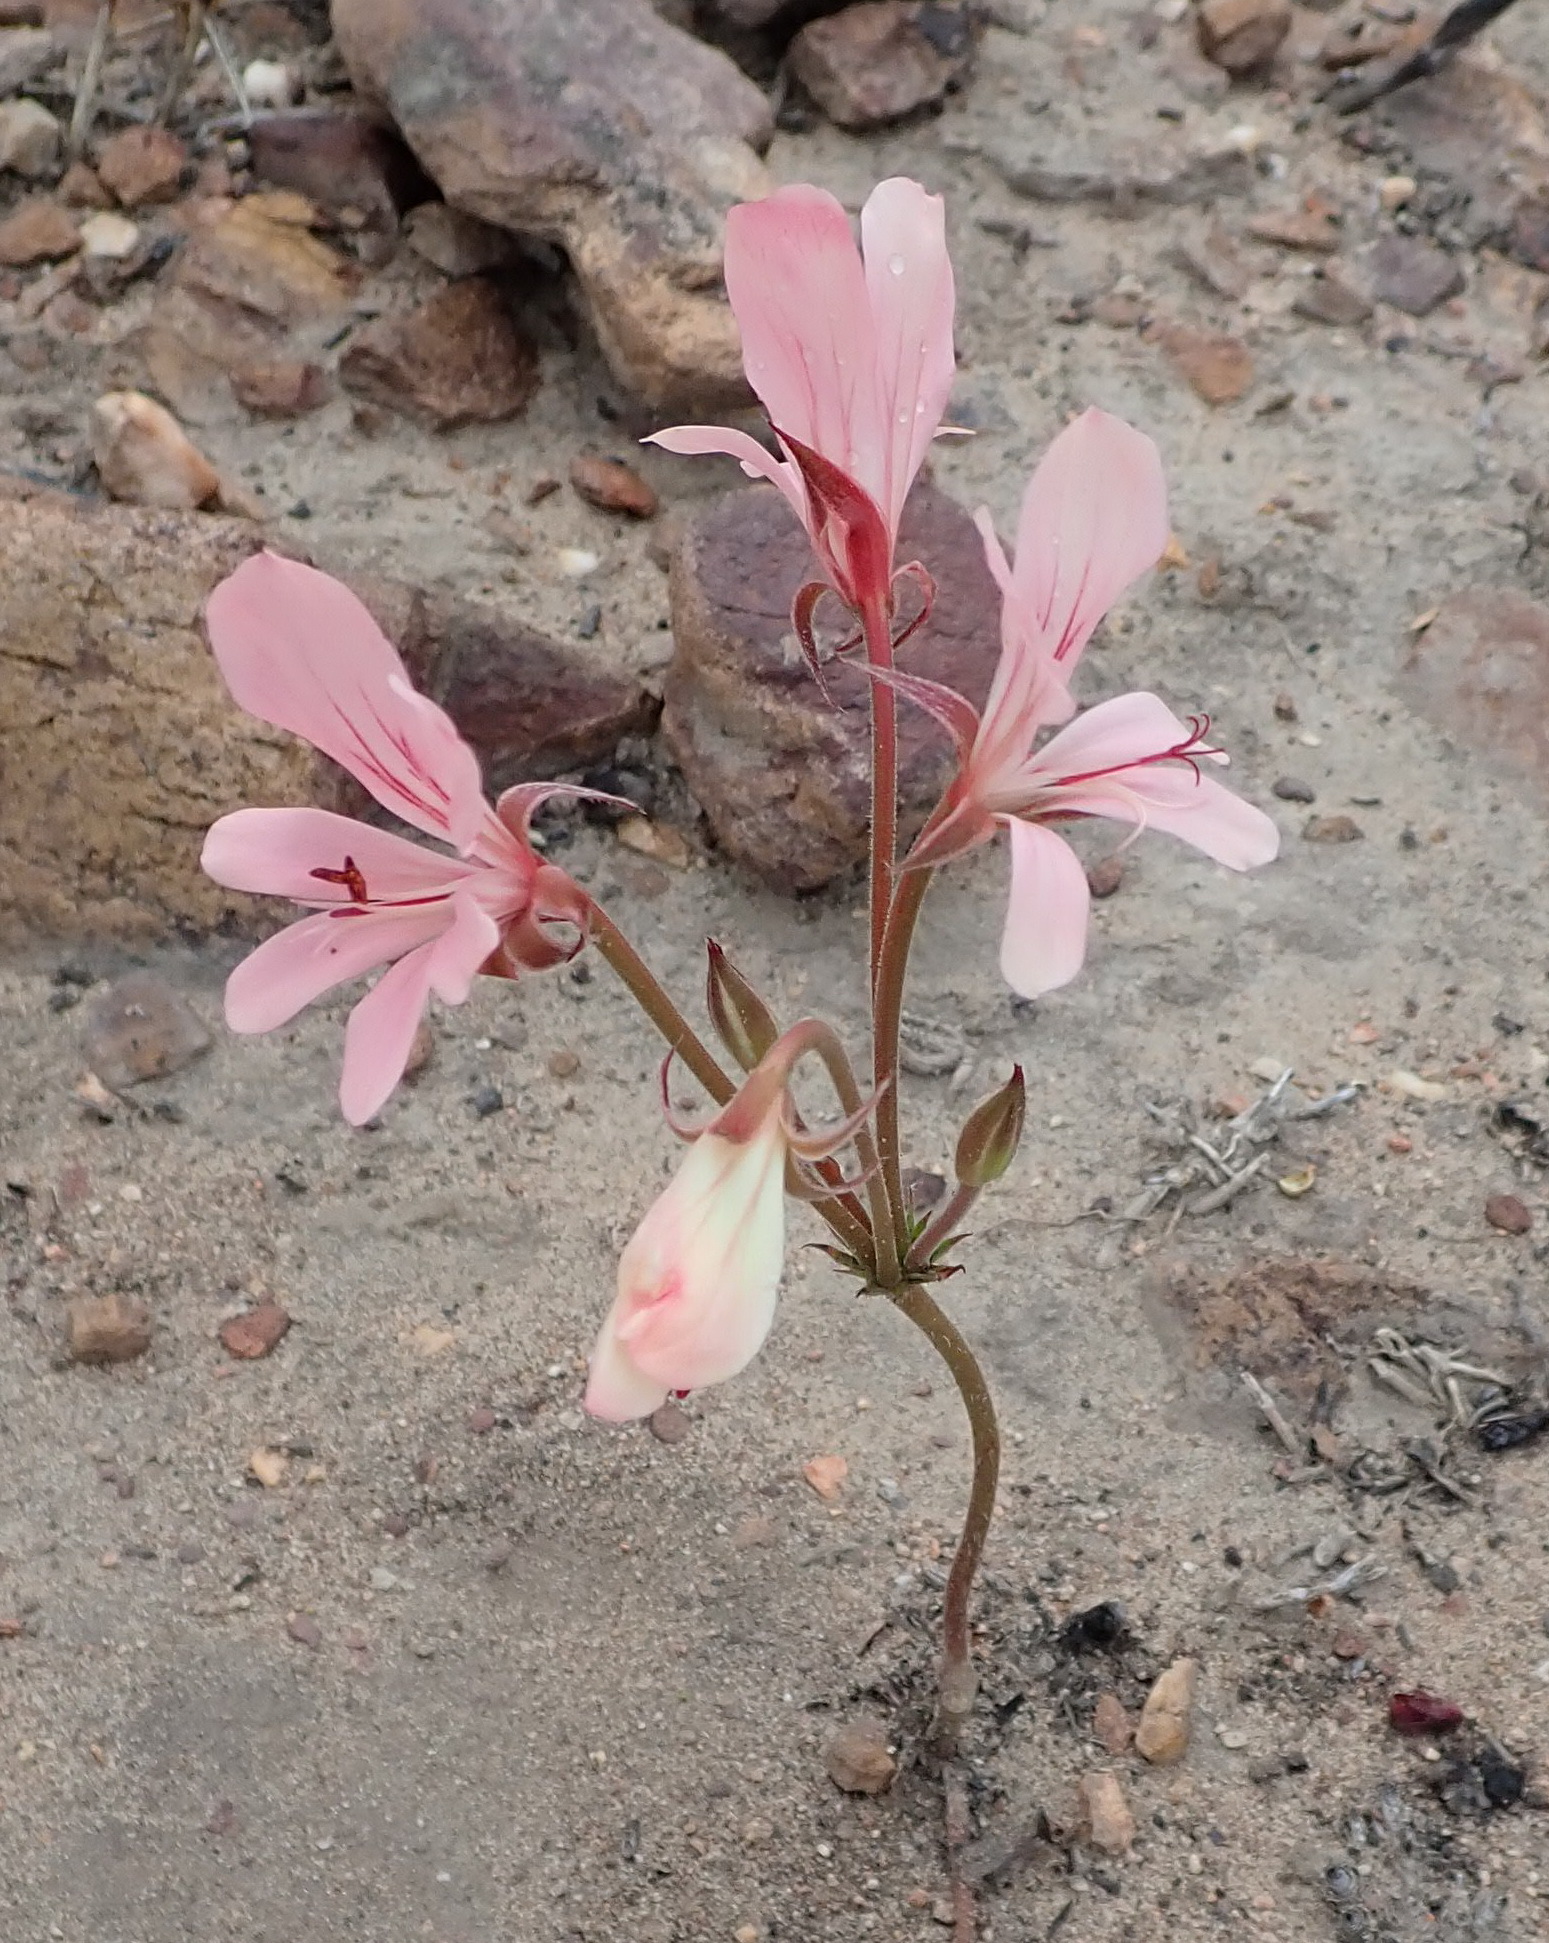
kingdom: Plantae
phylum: Tracheophyta
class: Magnoliopsida
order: Geraniales
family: Geraniaceae
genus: Pelargonium
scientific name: Pelargonium carneum
